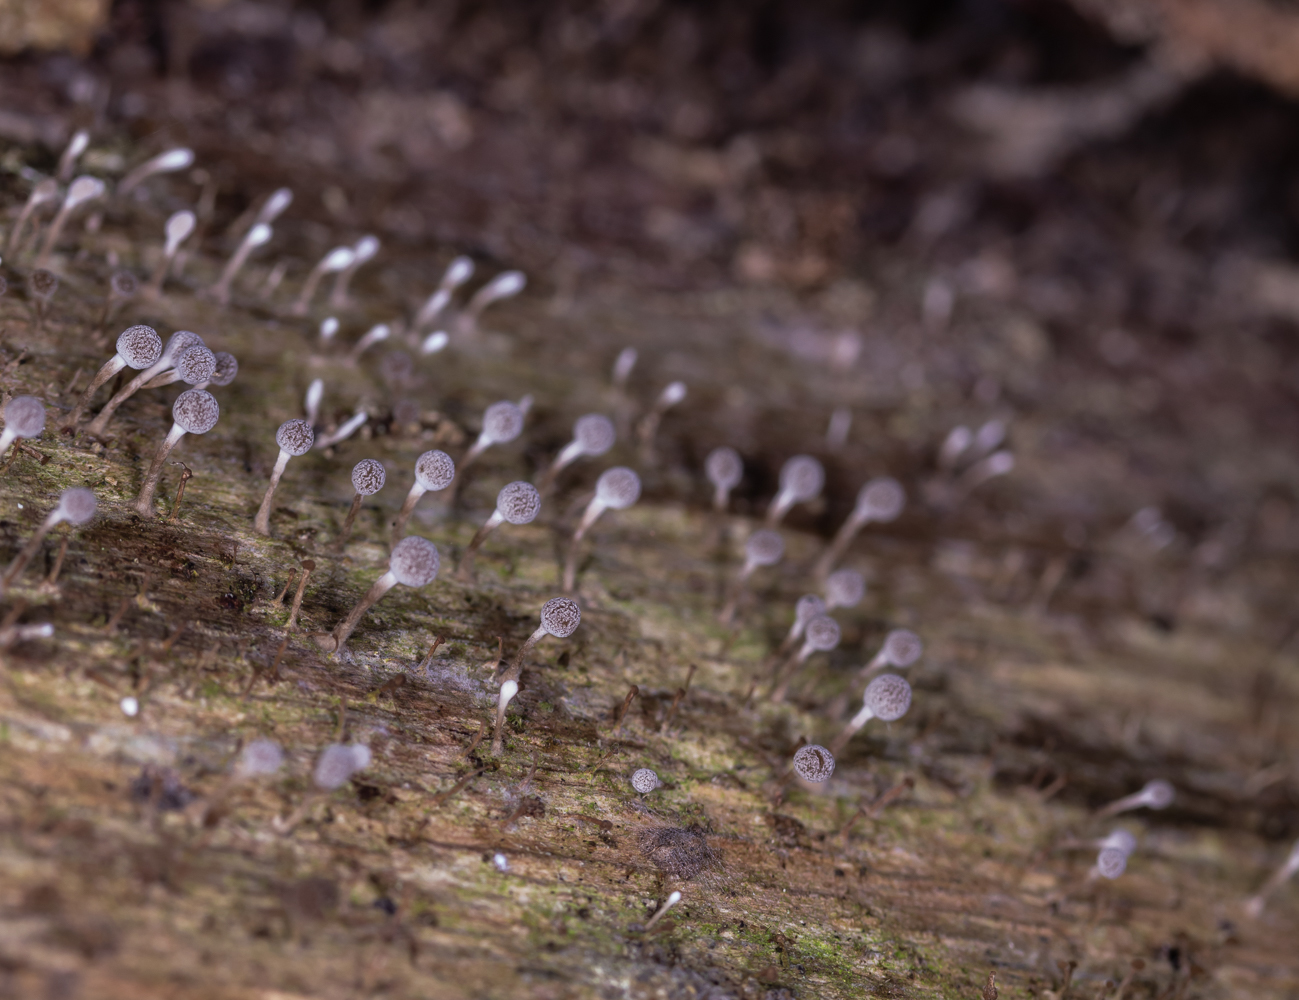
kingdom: Fungi
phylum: Basidiomycota
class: Atractiellomycetes
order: Atractiellales
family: Phleogenaceae
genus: Phleogena
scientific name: Phleogena faginea
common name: Fenugreek stalkball
